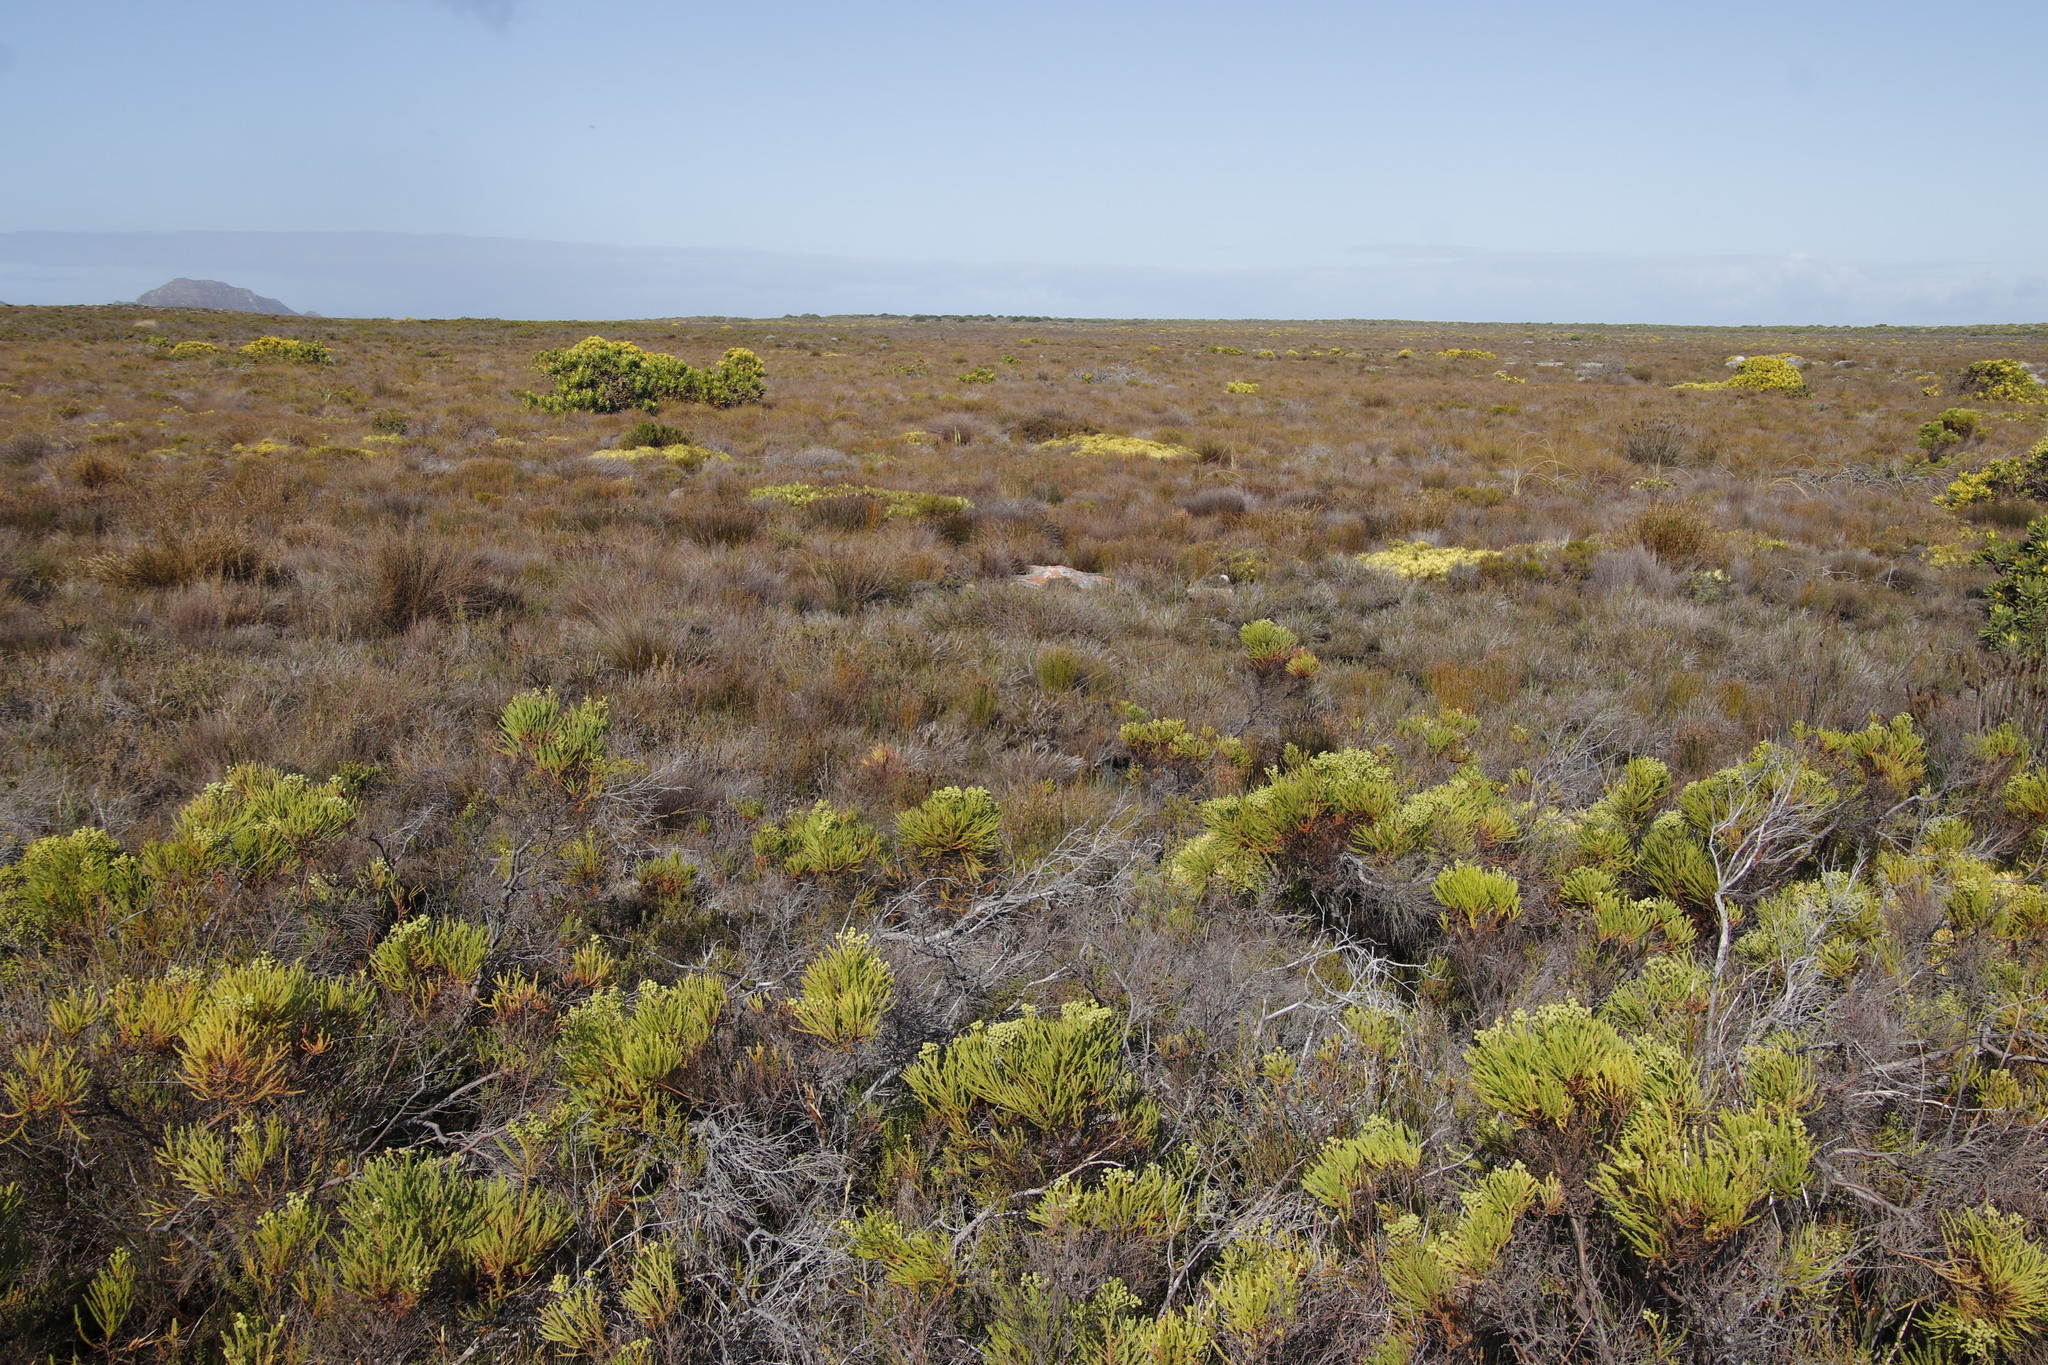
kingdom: Plantae
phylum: Tracheophyta
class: Magnoliopsida
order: Proteales
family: Proteaceae
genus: Leucadendron
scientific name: Leucadendron salignum
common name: Common sunshine conebush
